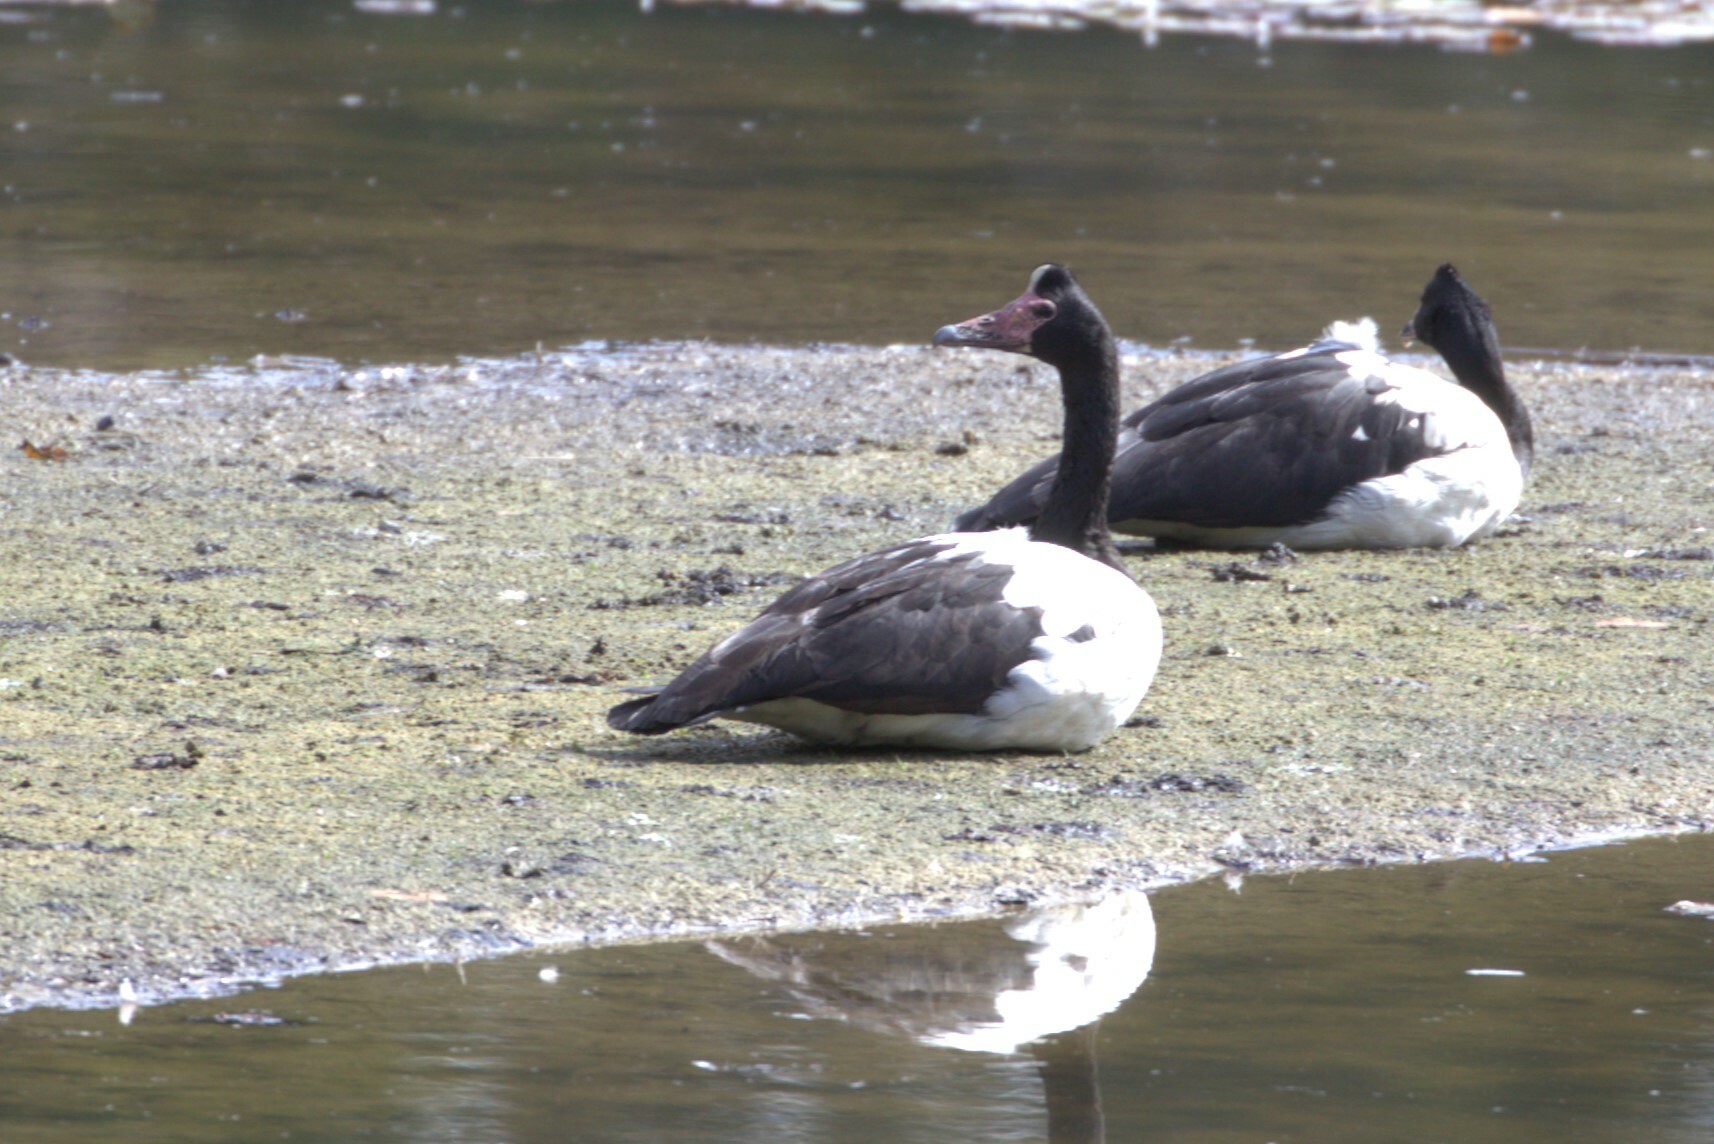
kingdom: Animalia
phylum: Chordata
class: Aves
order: Anseriformes
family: Anseranatidae
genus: Anseranas
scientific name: Anseranas semipalmata
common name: Magpie goose
